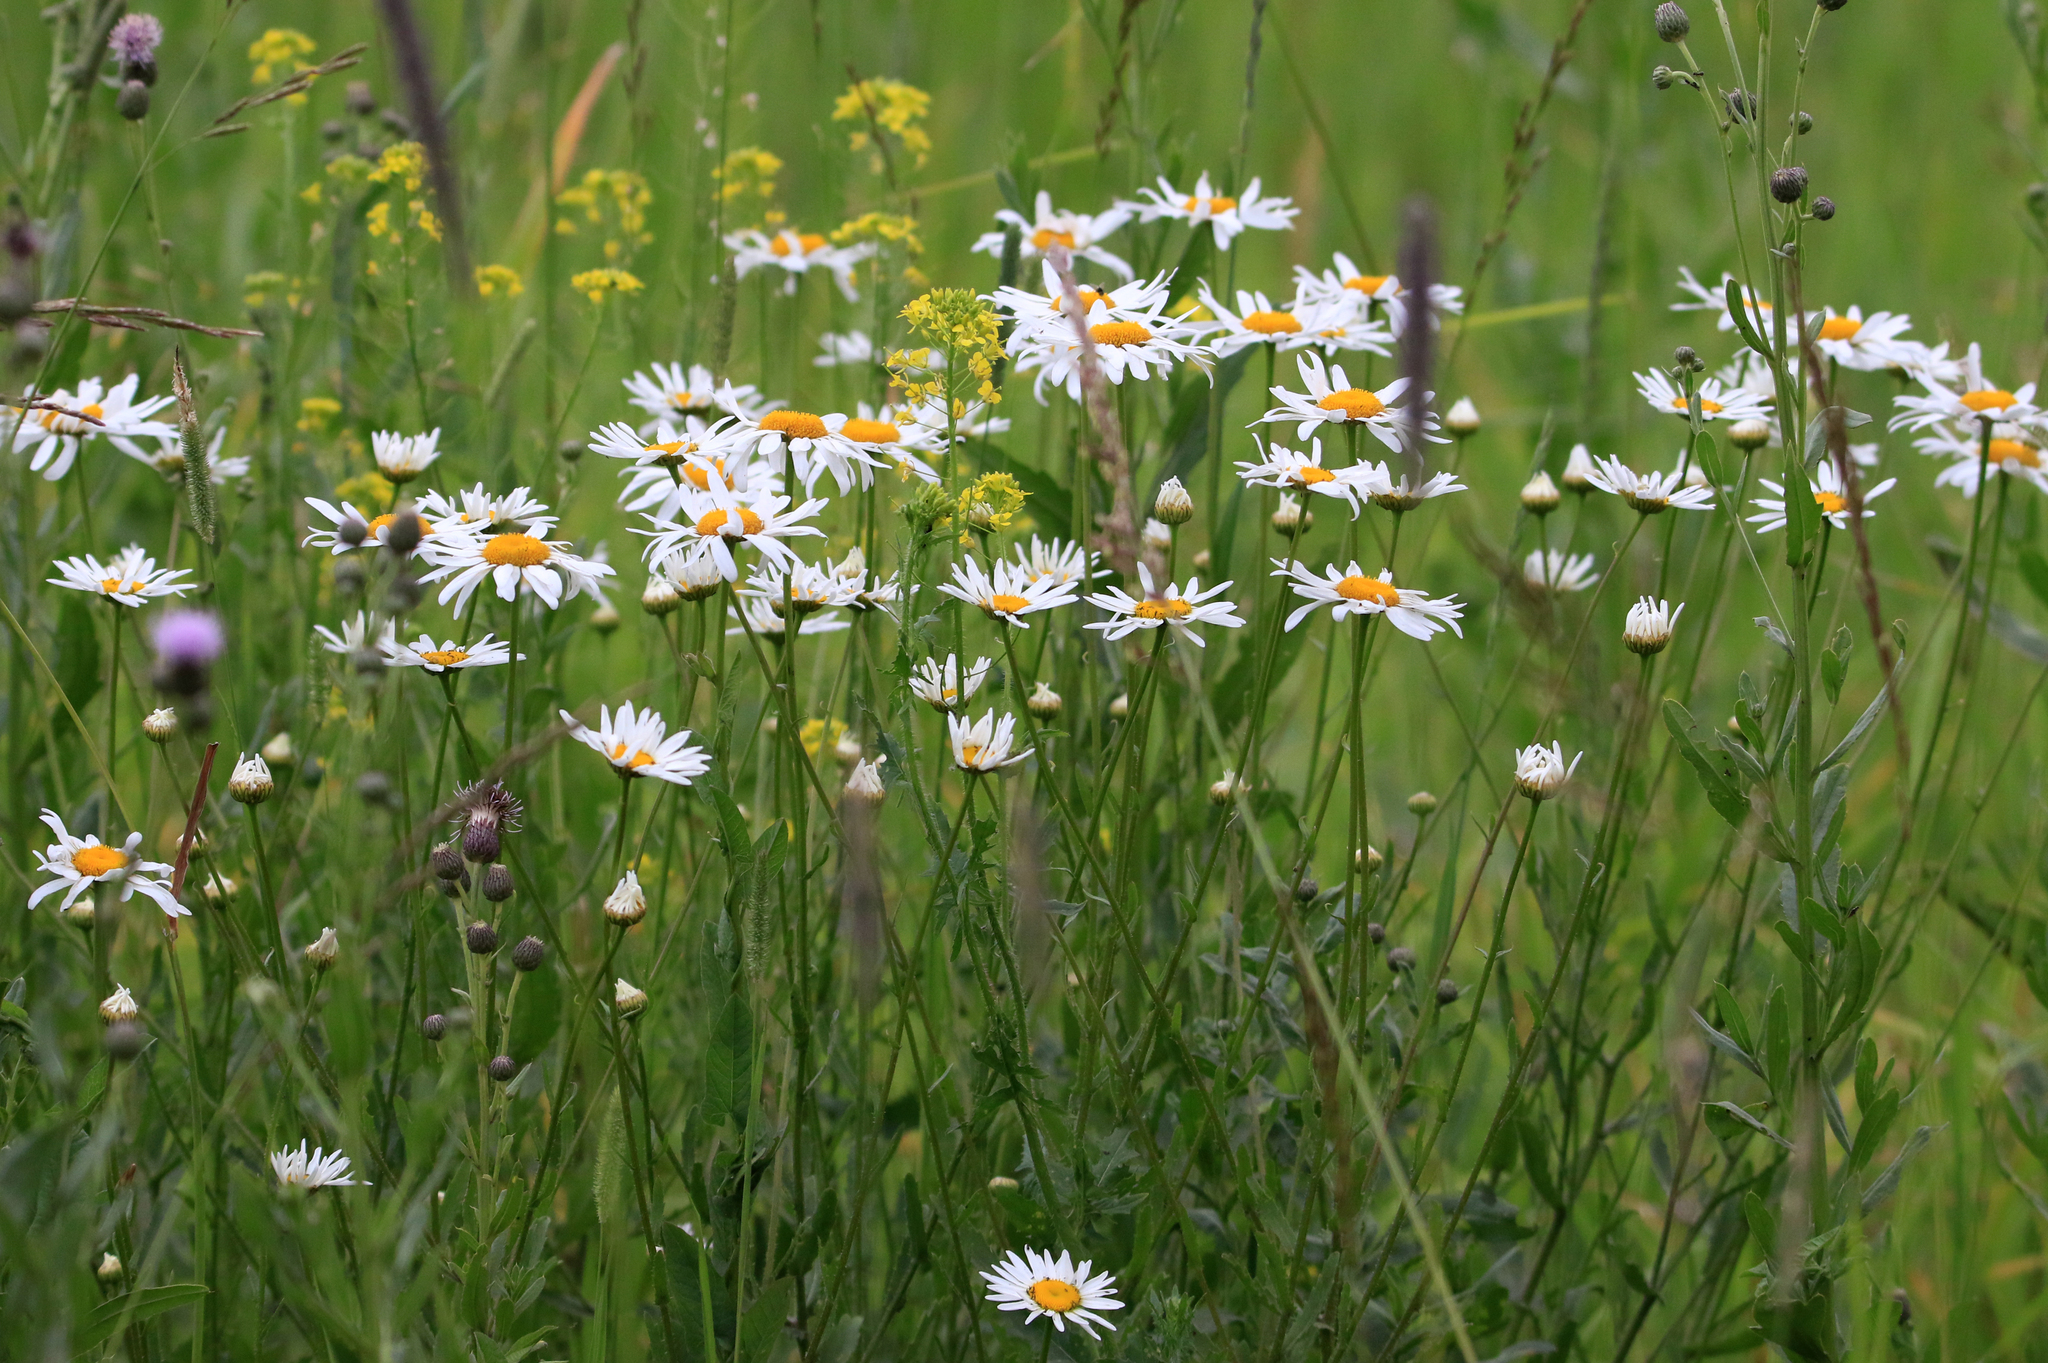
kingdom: Plantae
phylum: Tracheophyta
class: Magnoliopsida
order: Asterales
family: Asteraceae
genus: Leucanthemum
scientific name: Leucanthemum ircutianum
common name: Daisy
